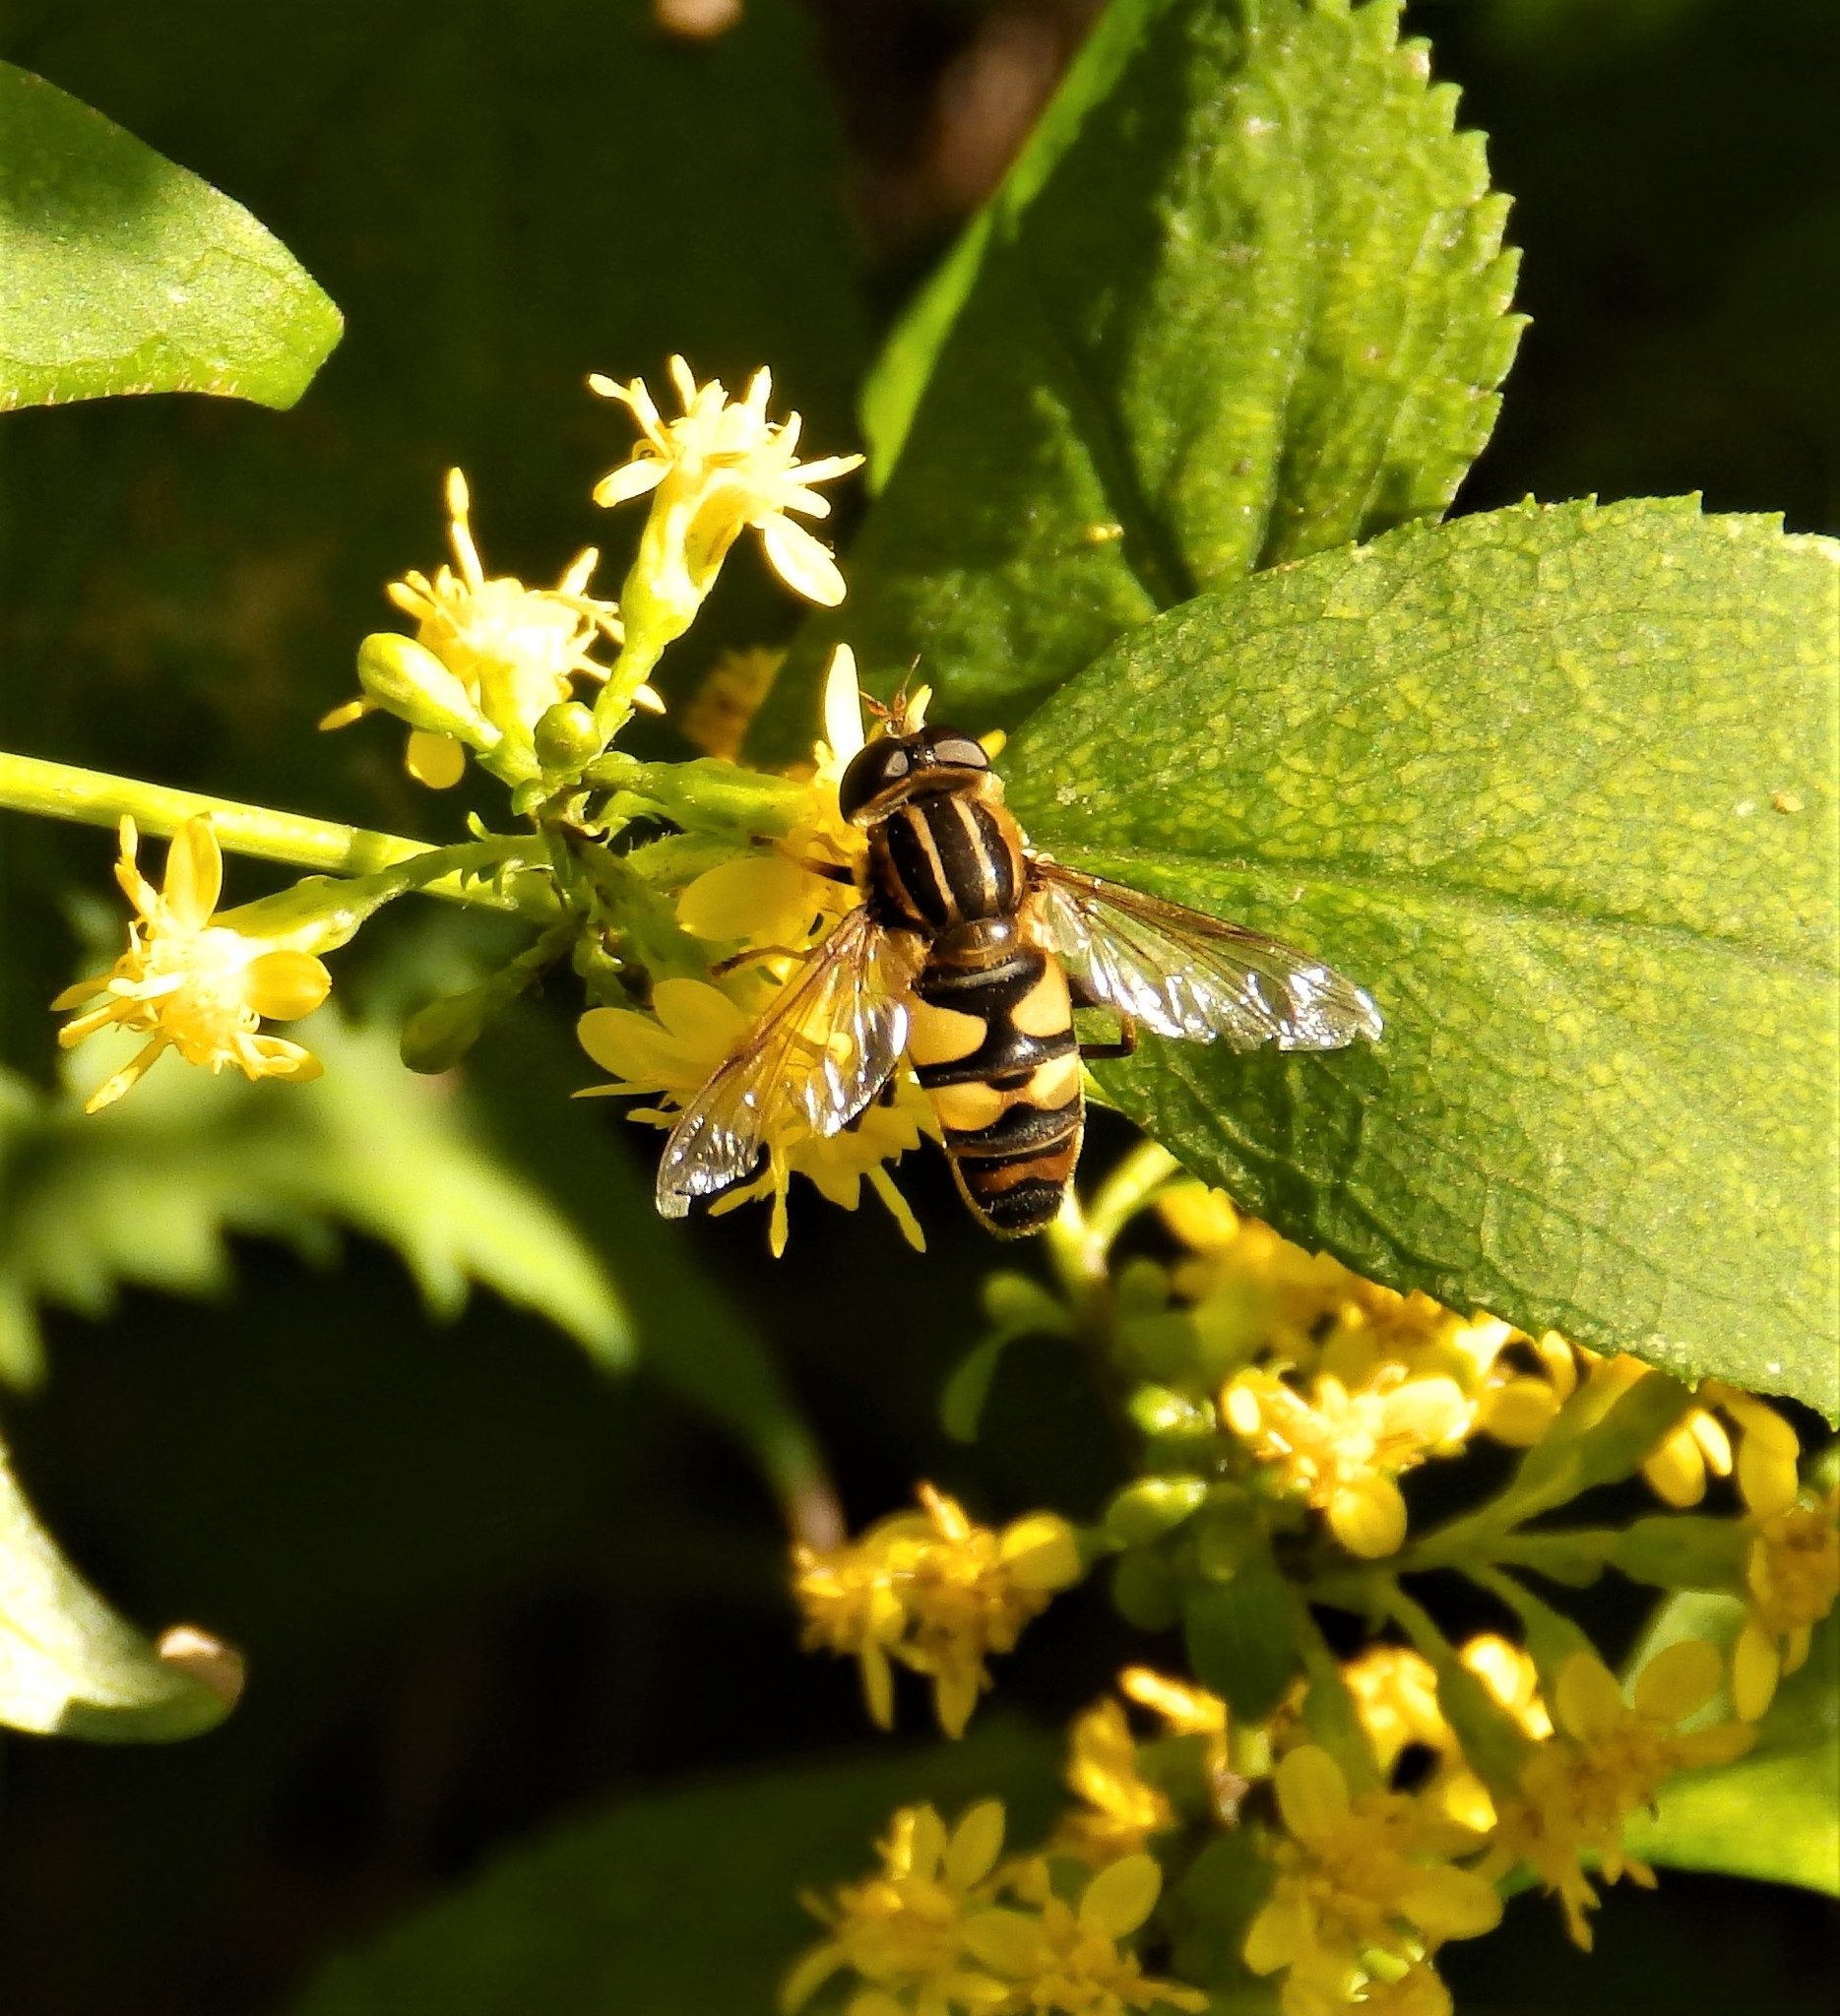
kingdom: Animalia
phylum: Arthropoda
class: Insecta
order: Diptera
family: Syrphidae
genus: Helophilus
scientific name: Helophilus fasciatus
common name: Narrow-headed marsh fly
